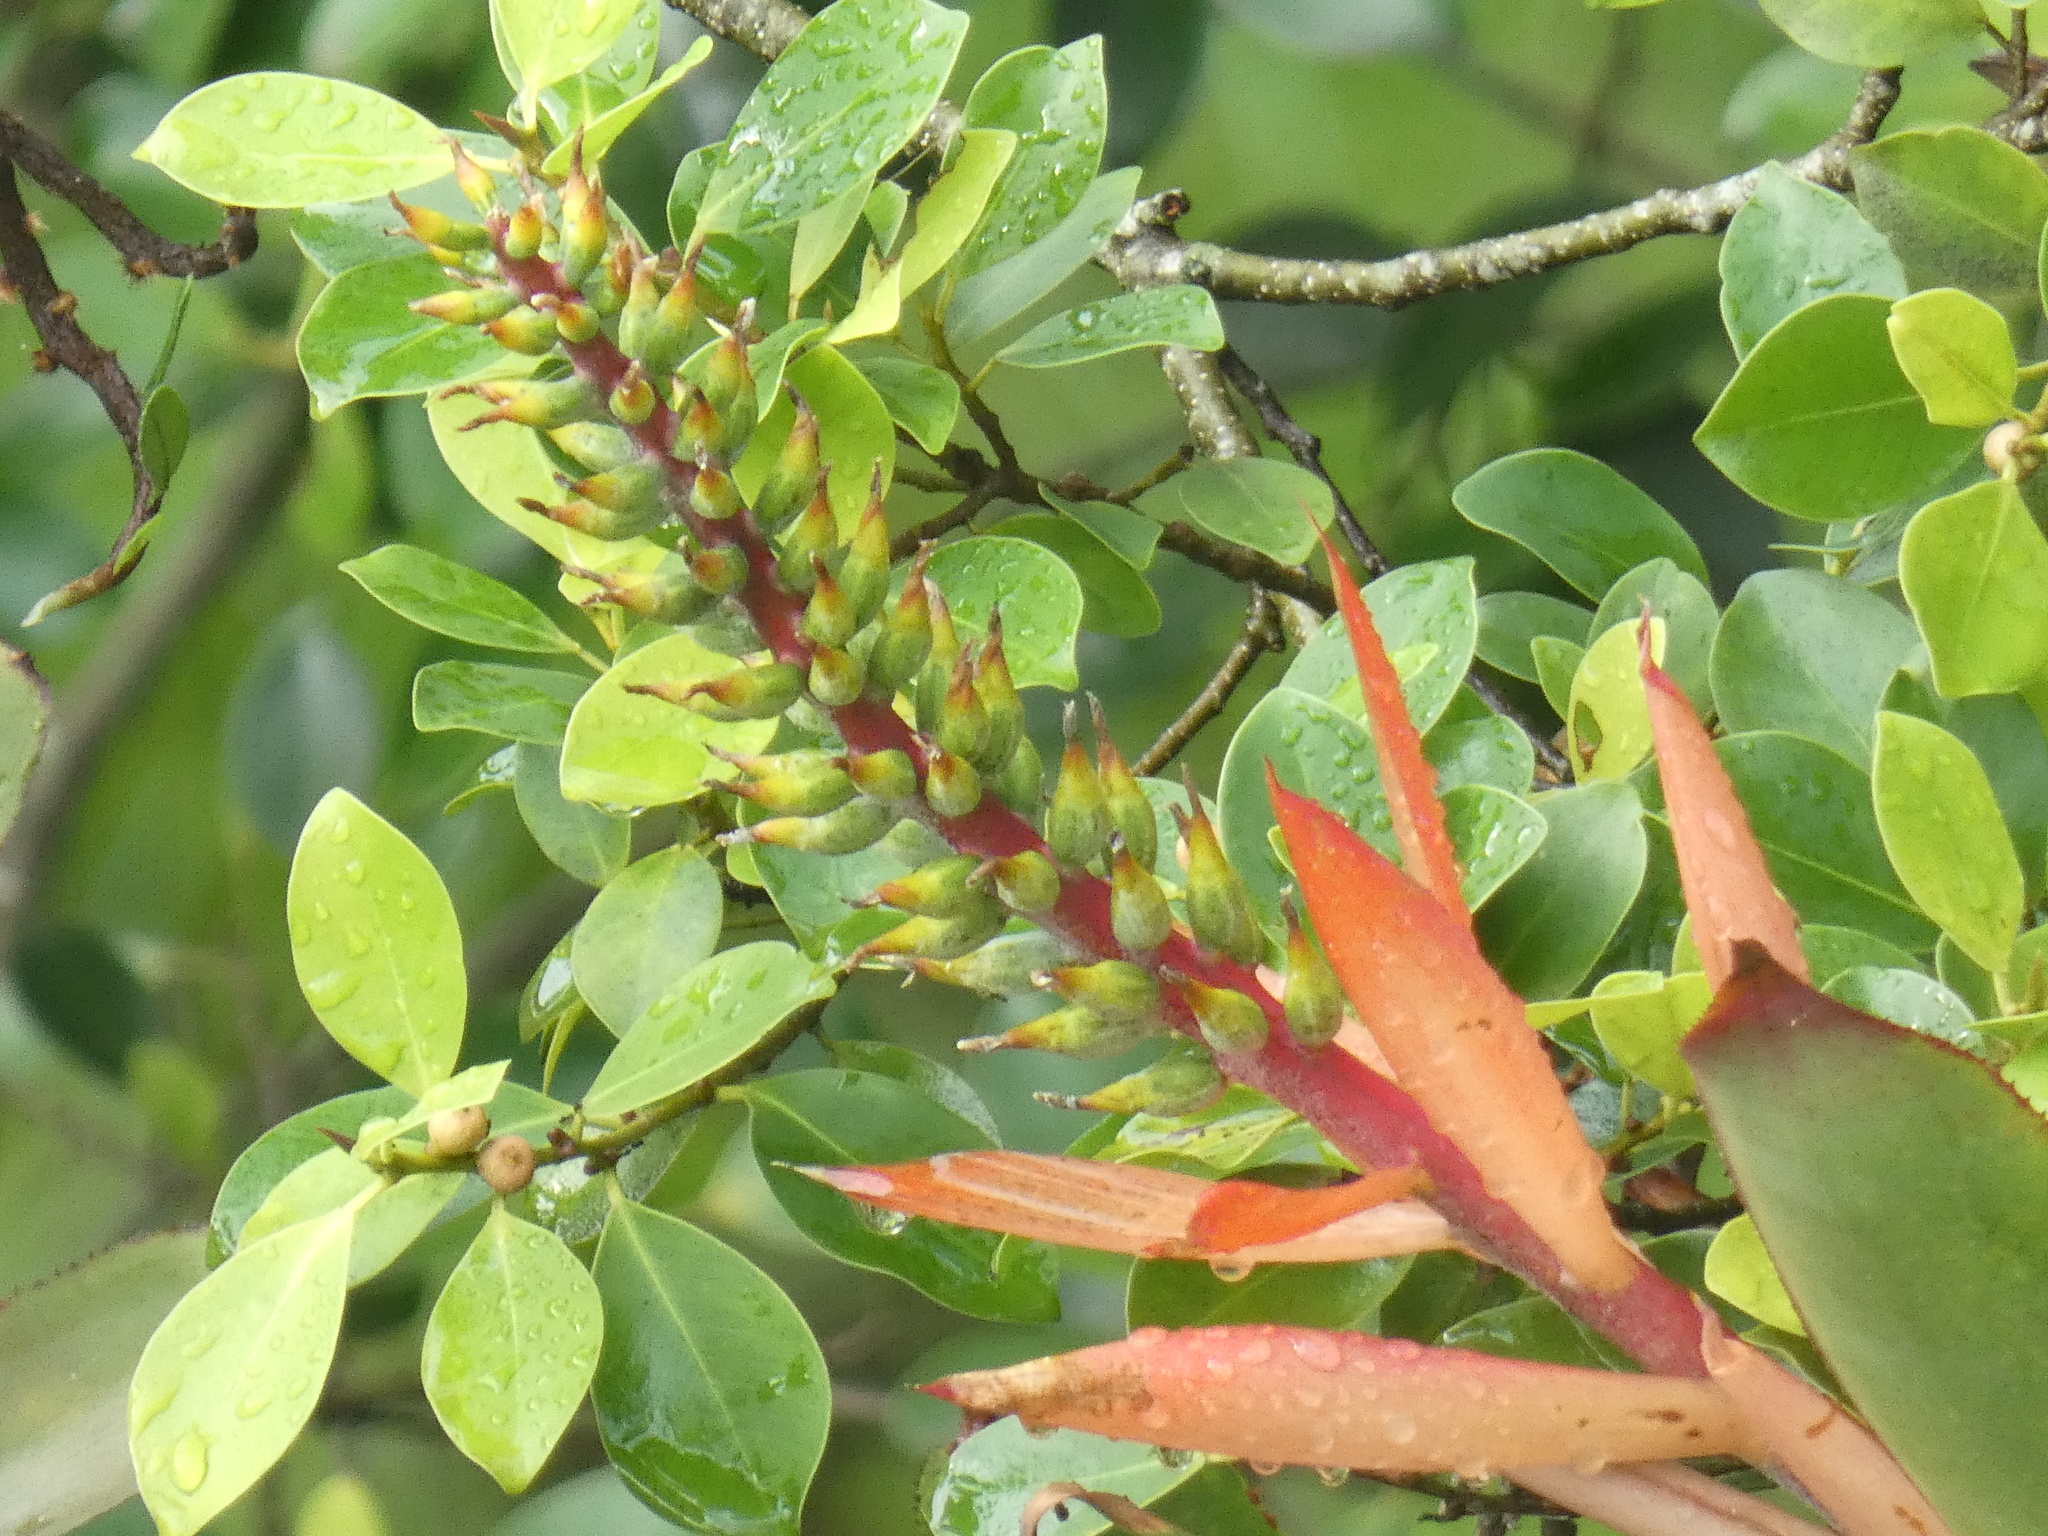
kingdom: Plantae
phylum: Tracheophyta
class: Liliopsida
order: Poales
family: Bromeliaceae
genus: Aechmea
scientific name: Aechmea nudicaulis
